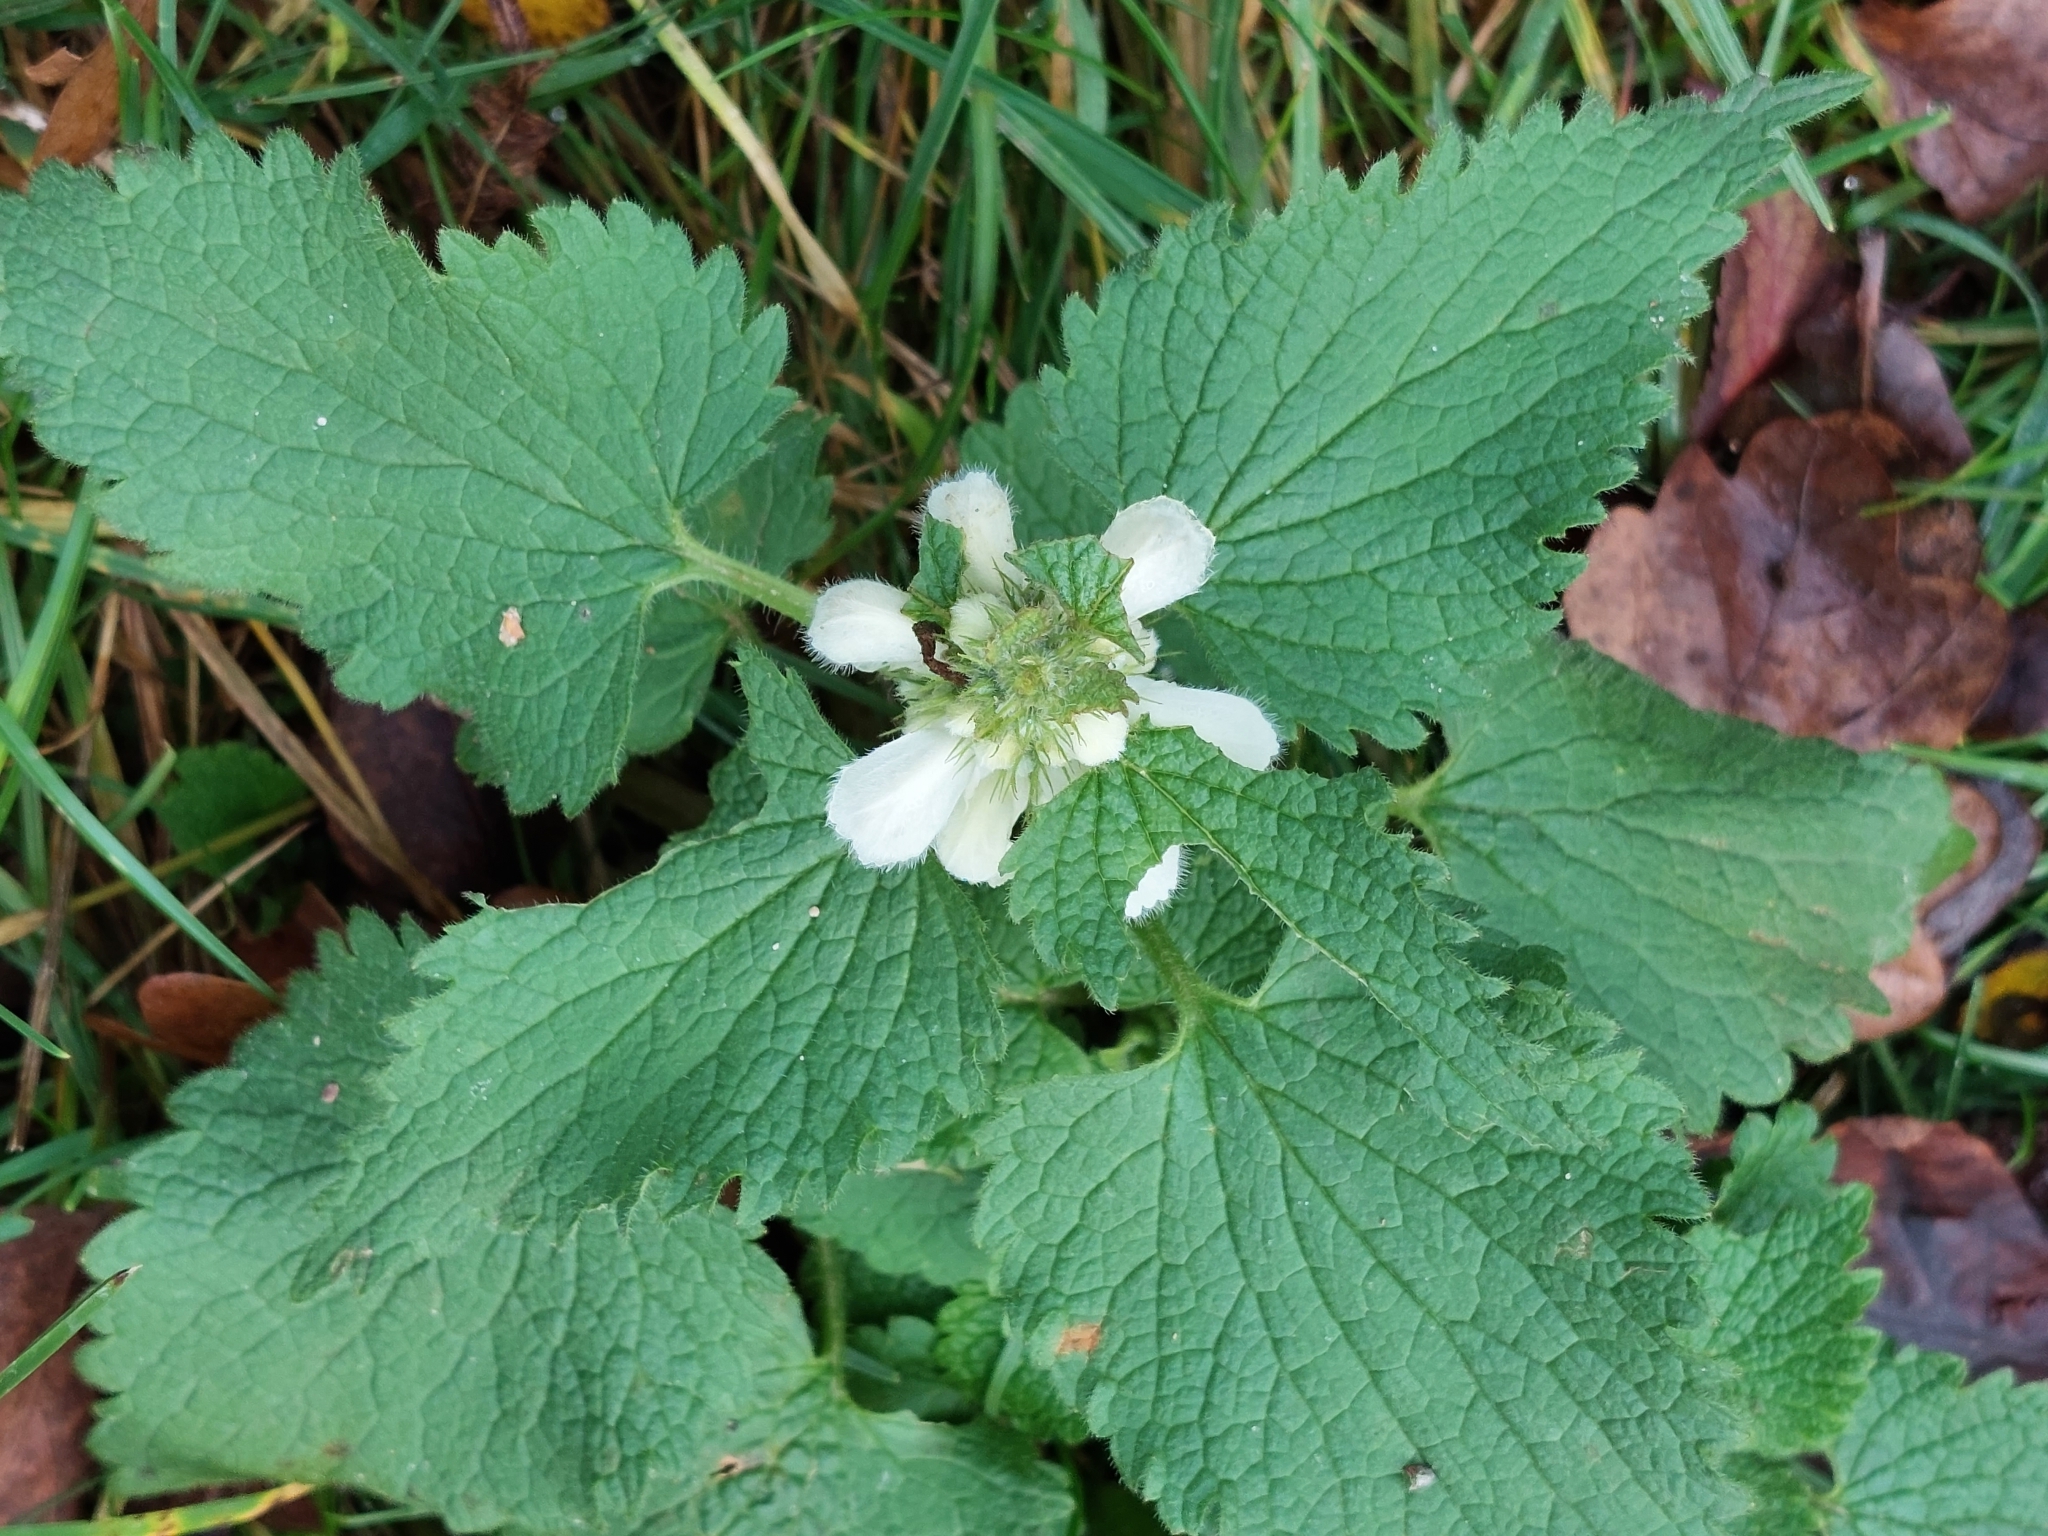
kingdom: Plantae
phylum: Tracheophyta
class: Magnoliopsida
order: Lamiales
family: Lamiaceae
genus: Lamium
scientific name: Lamium album
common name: White dead-nettle
